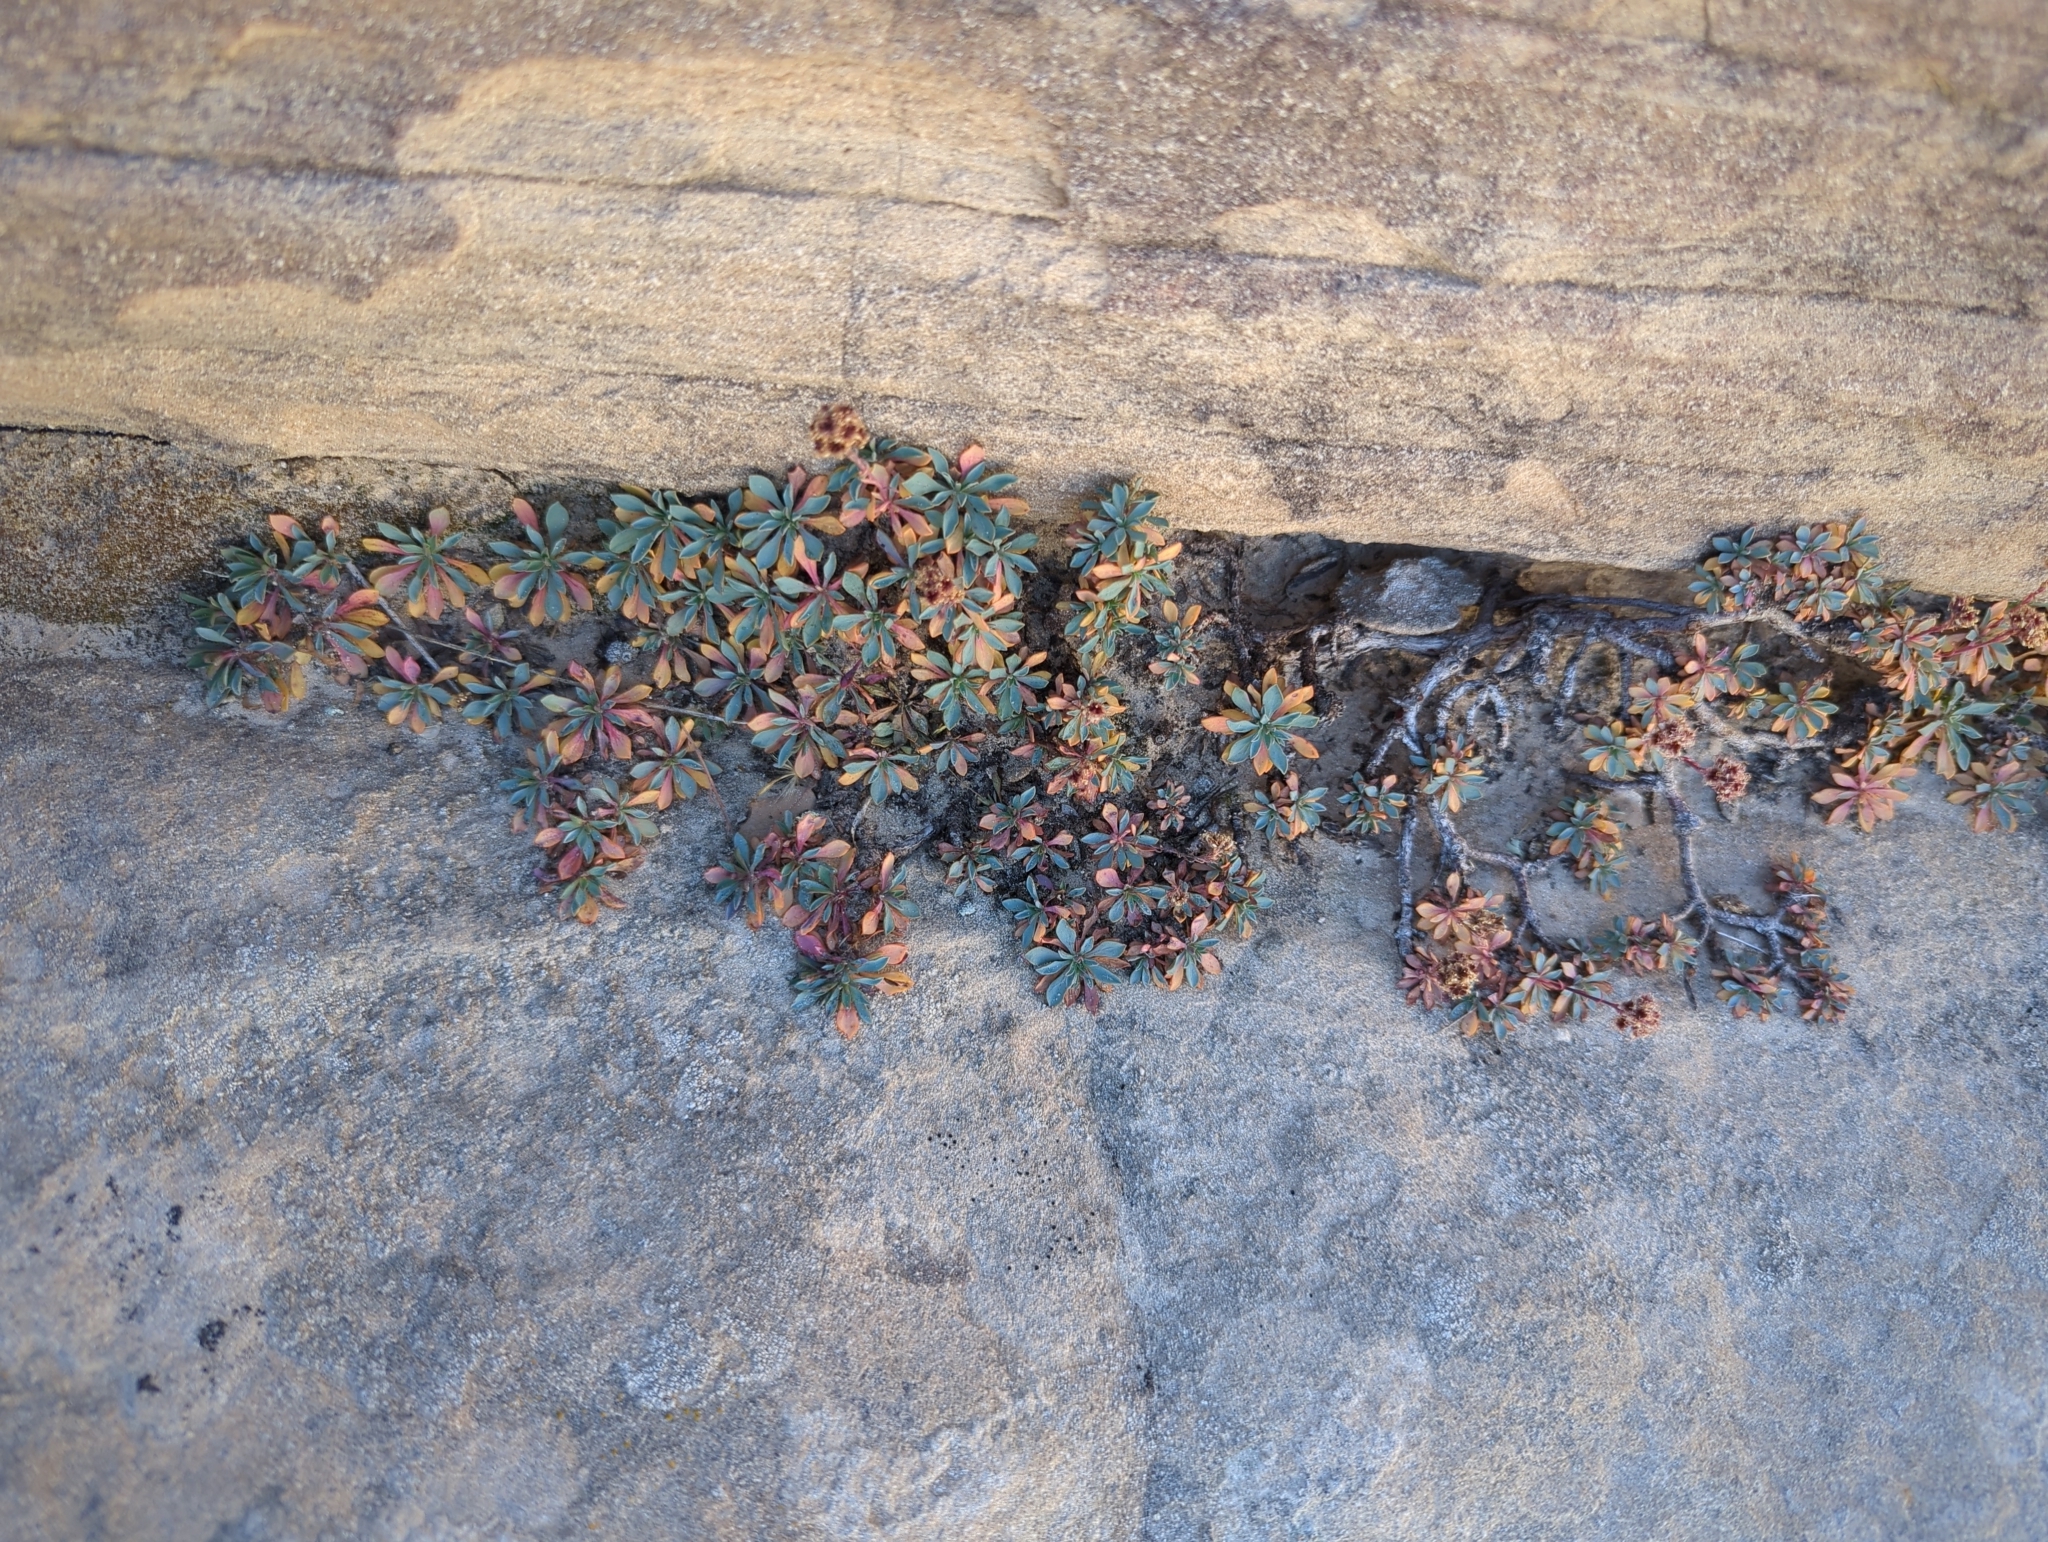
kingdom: Plantae
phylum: Tracheophyta
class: Magnoliopsida
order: Rosales
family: Rosaceae
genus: Petrophytum
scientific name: Petrophytum caespitosum
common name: Mat rockspirea
